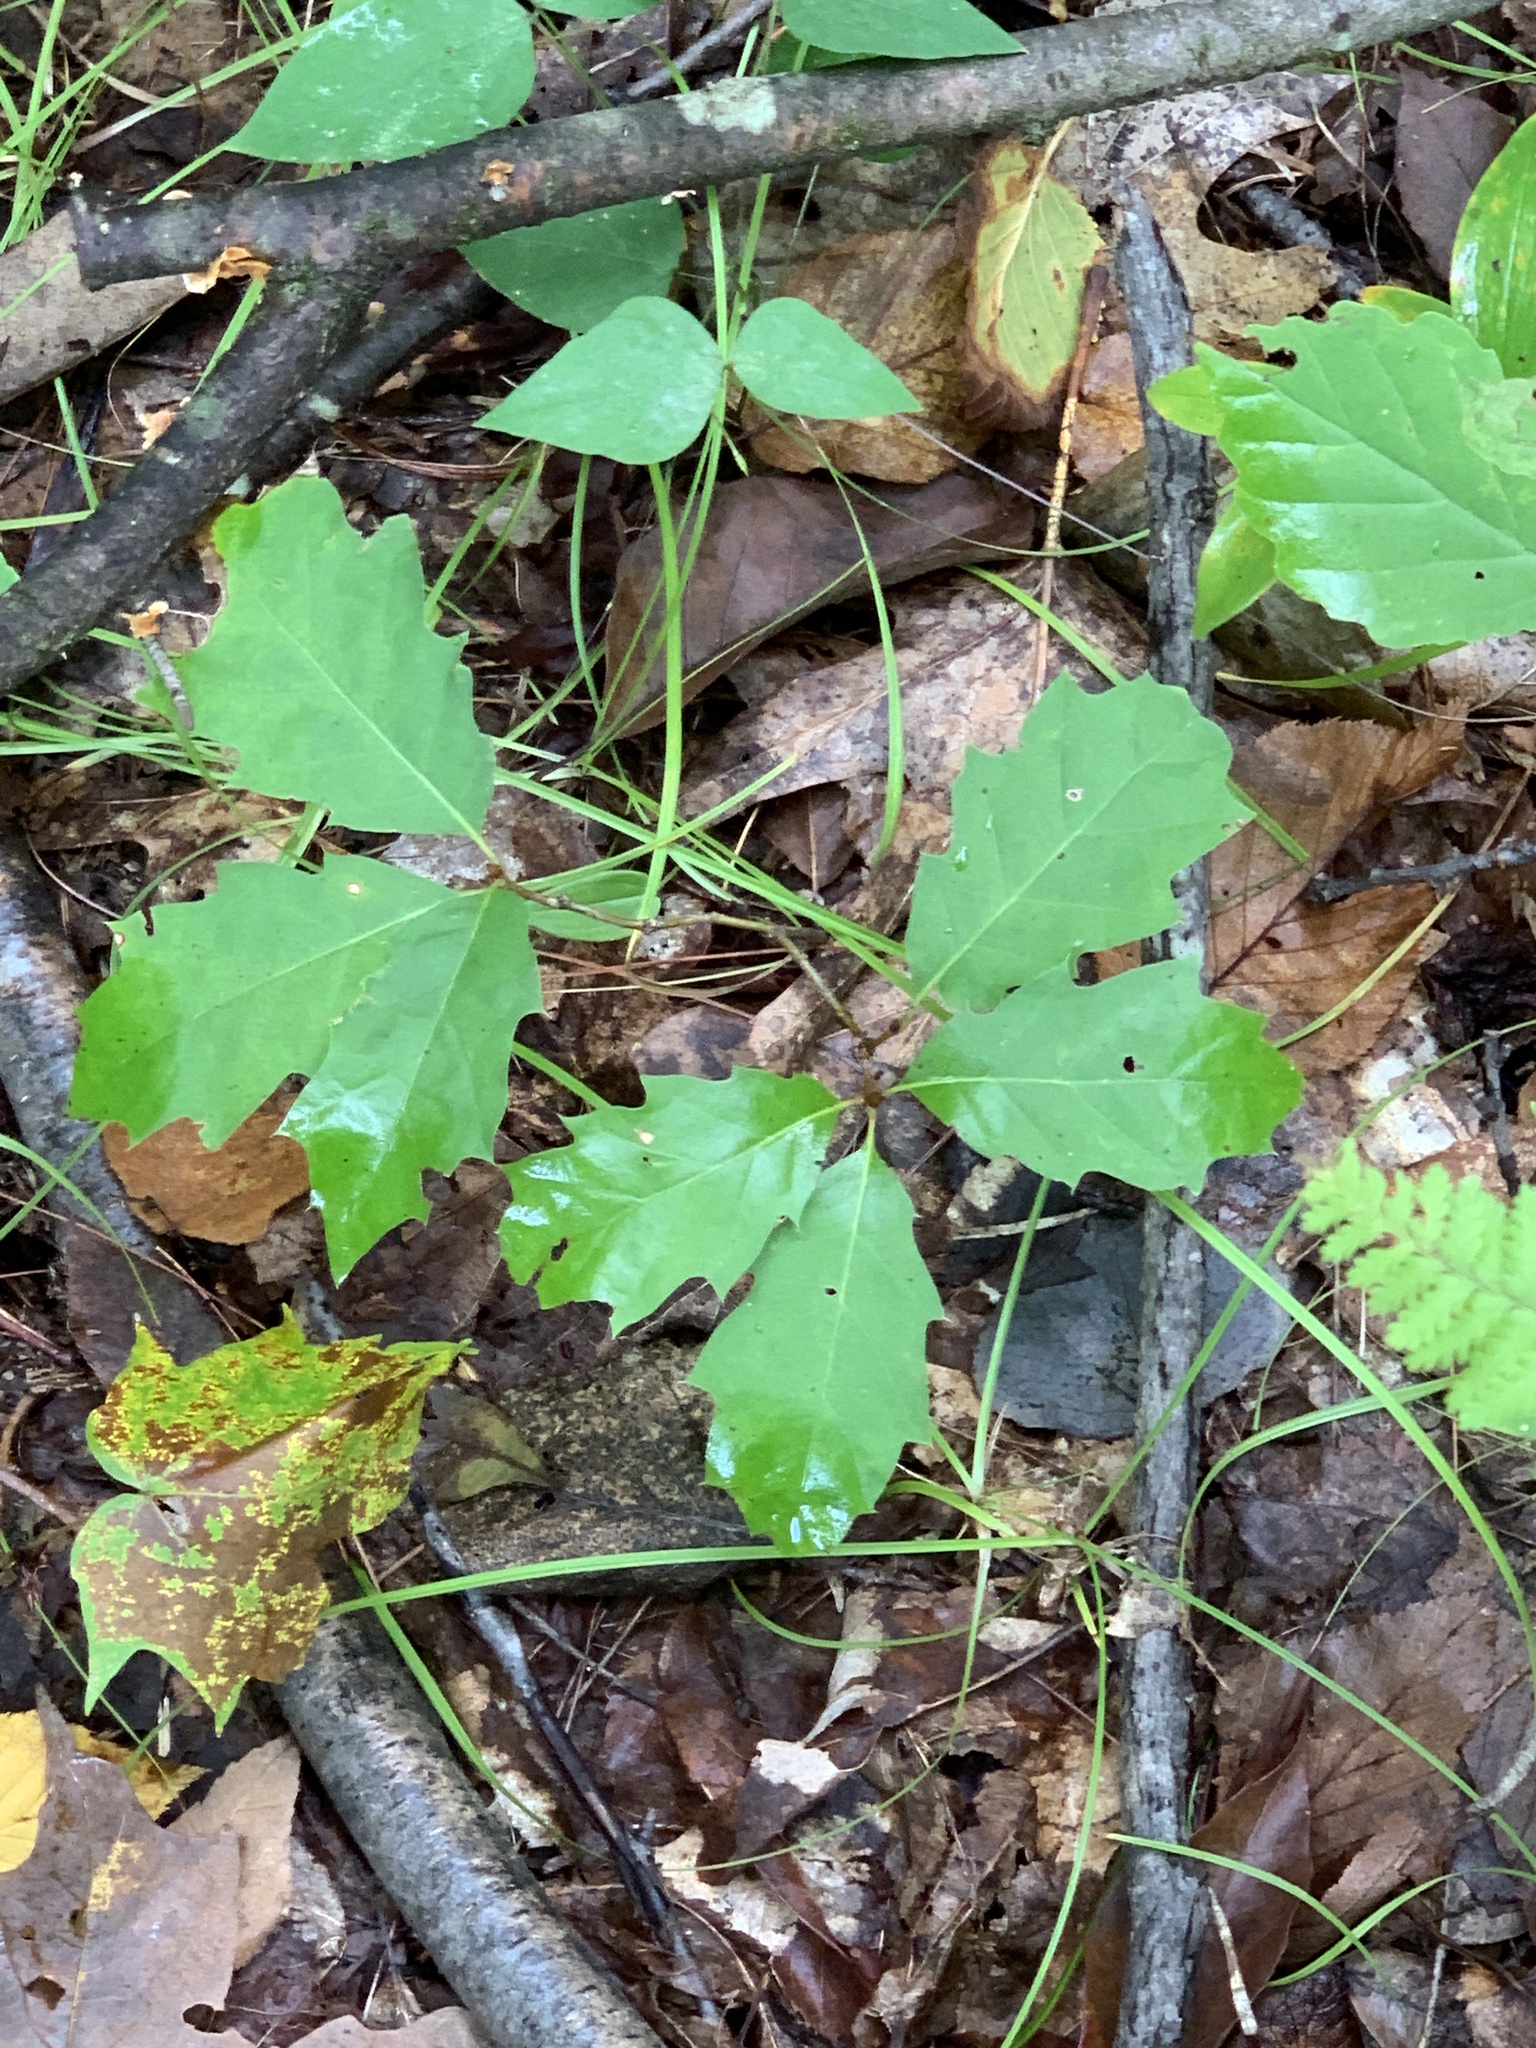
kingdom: Plantae
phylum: Tracheophyta
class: Magnoliopsida
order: Fagales
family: Fagaceae
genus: Quercus
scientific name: Quercus rubra
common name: Red oak
